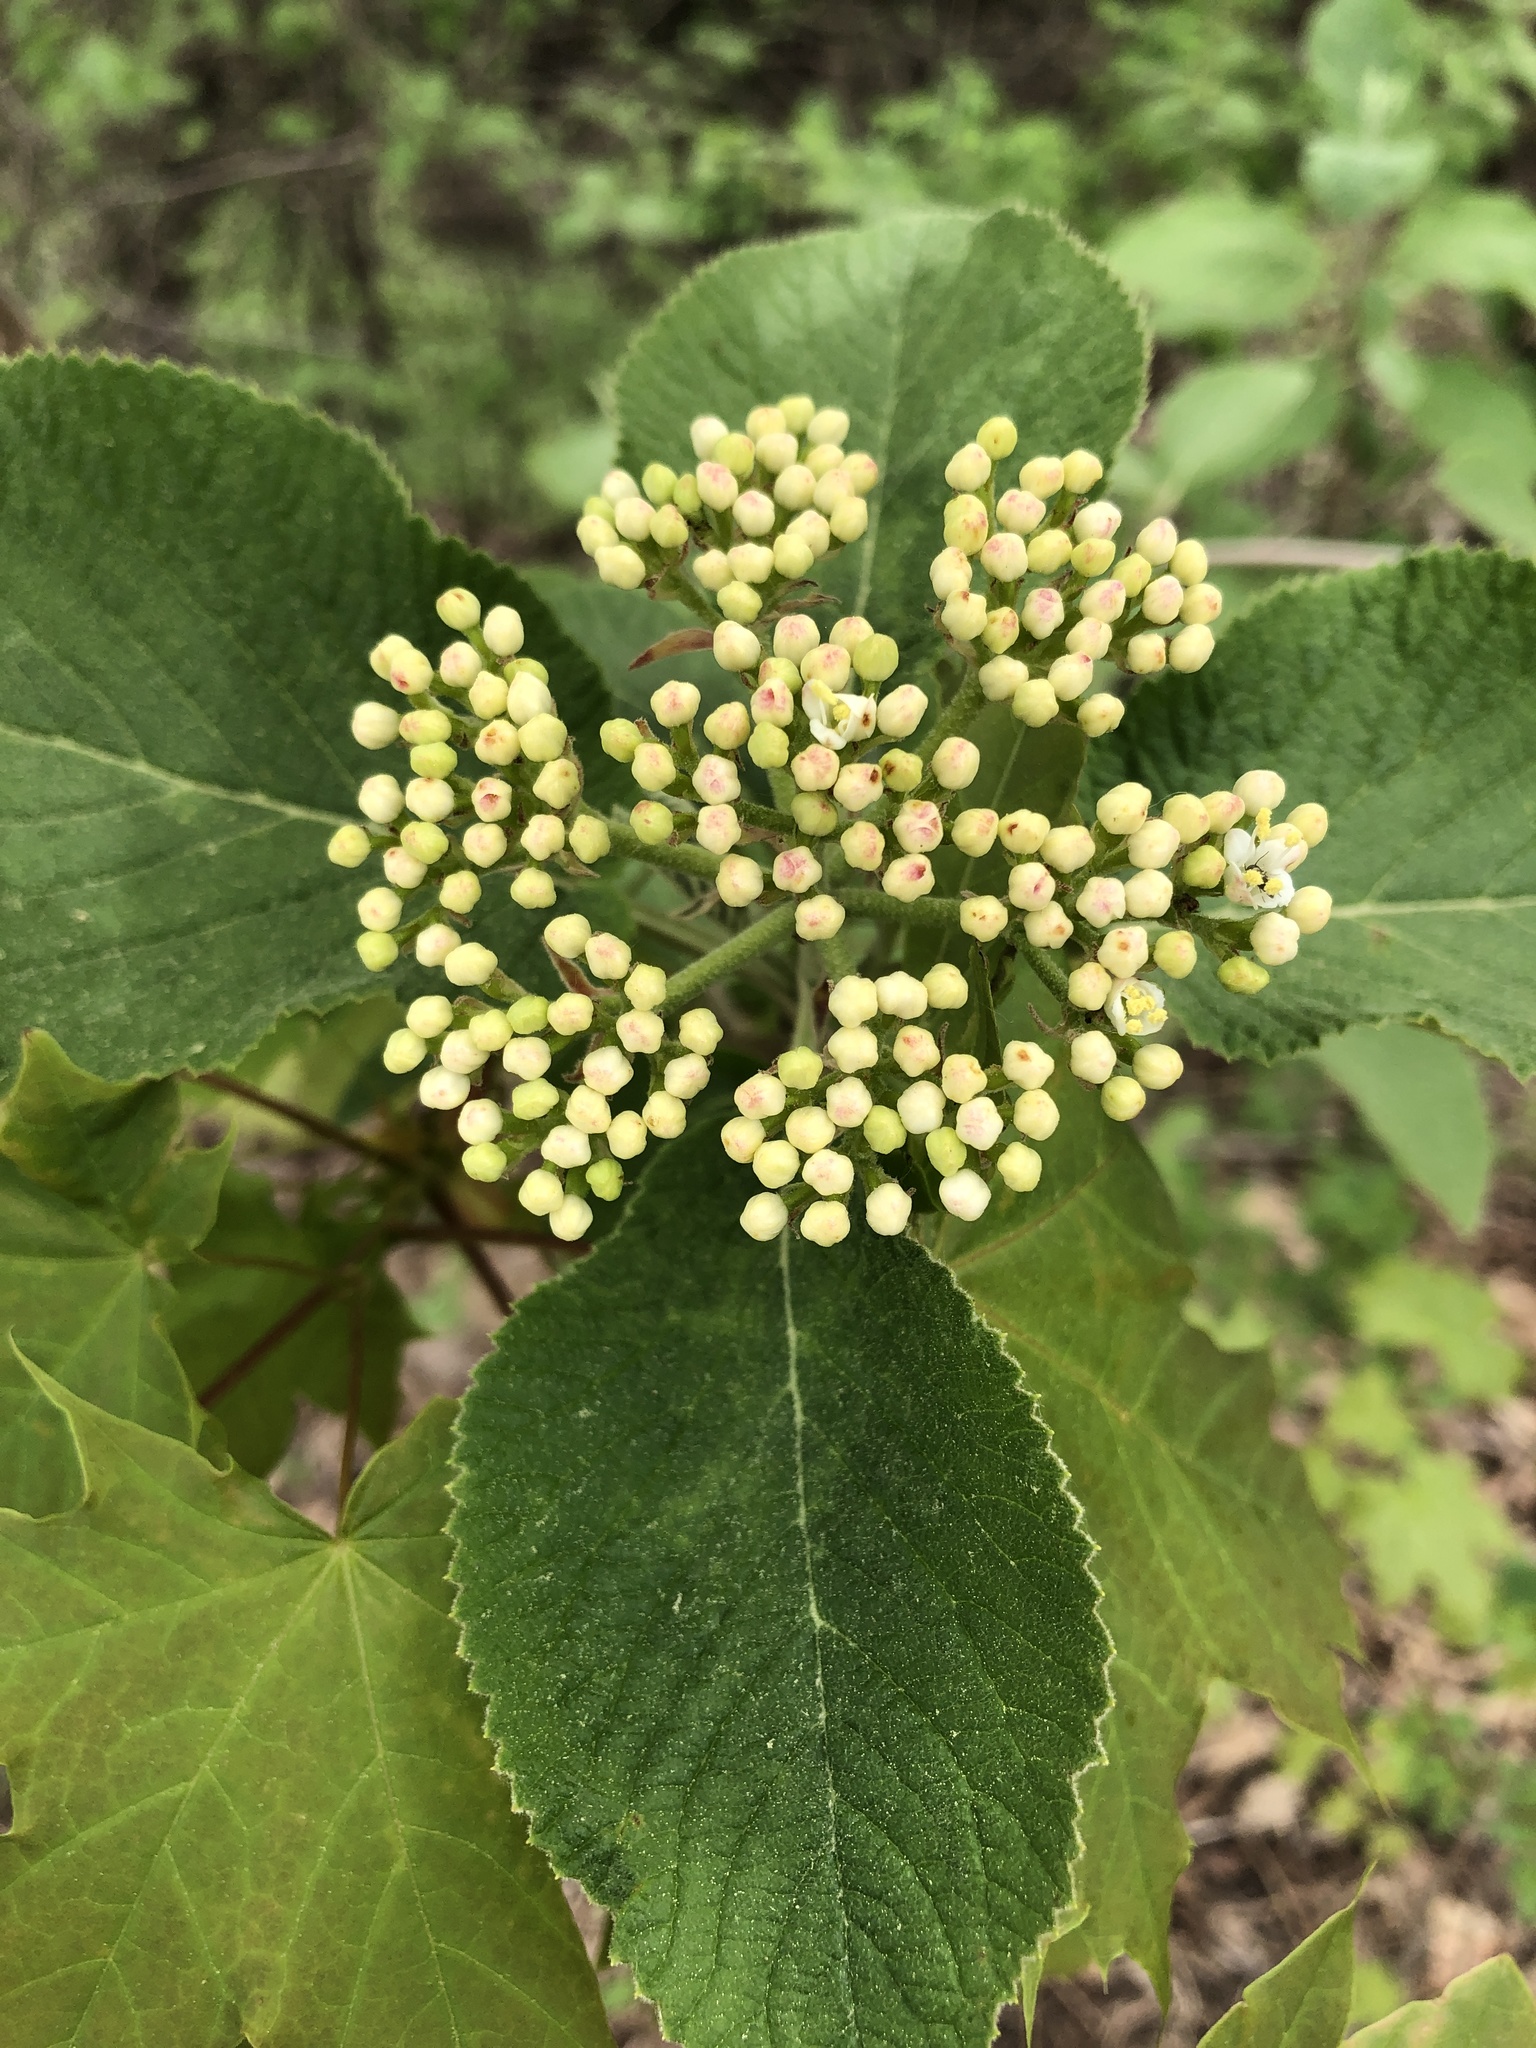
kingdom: Plantae
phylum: Tracheophyta
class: Magnoliopsida
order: Dipsacales
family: Viburnaceae
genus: Viburnum
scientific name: Viburnum lantana
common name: Wayfaring tree
